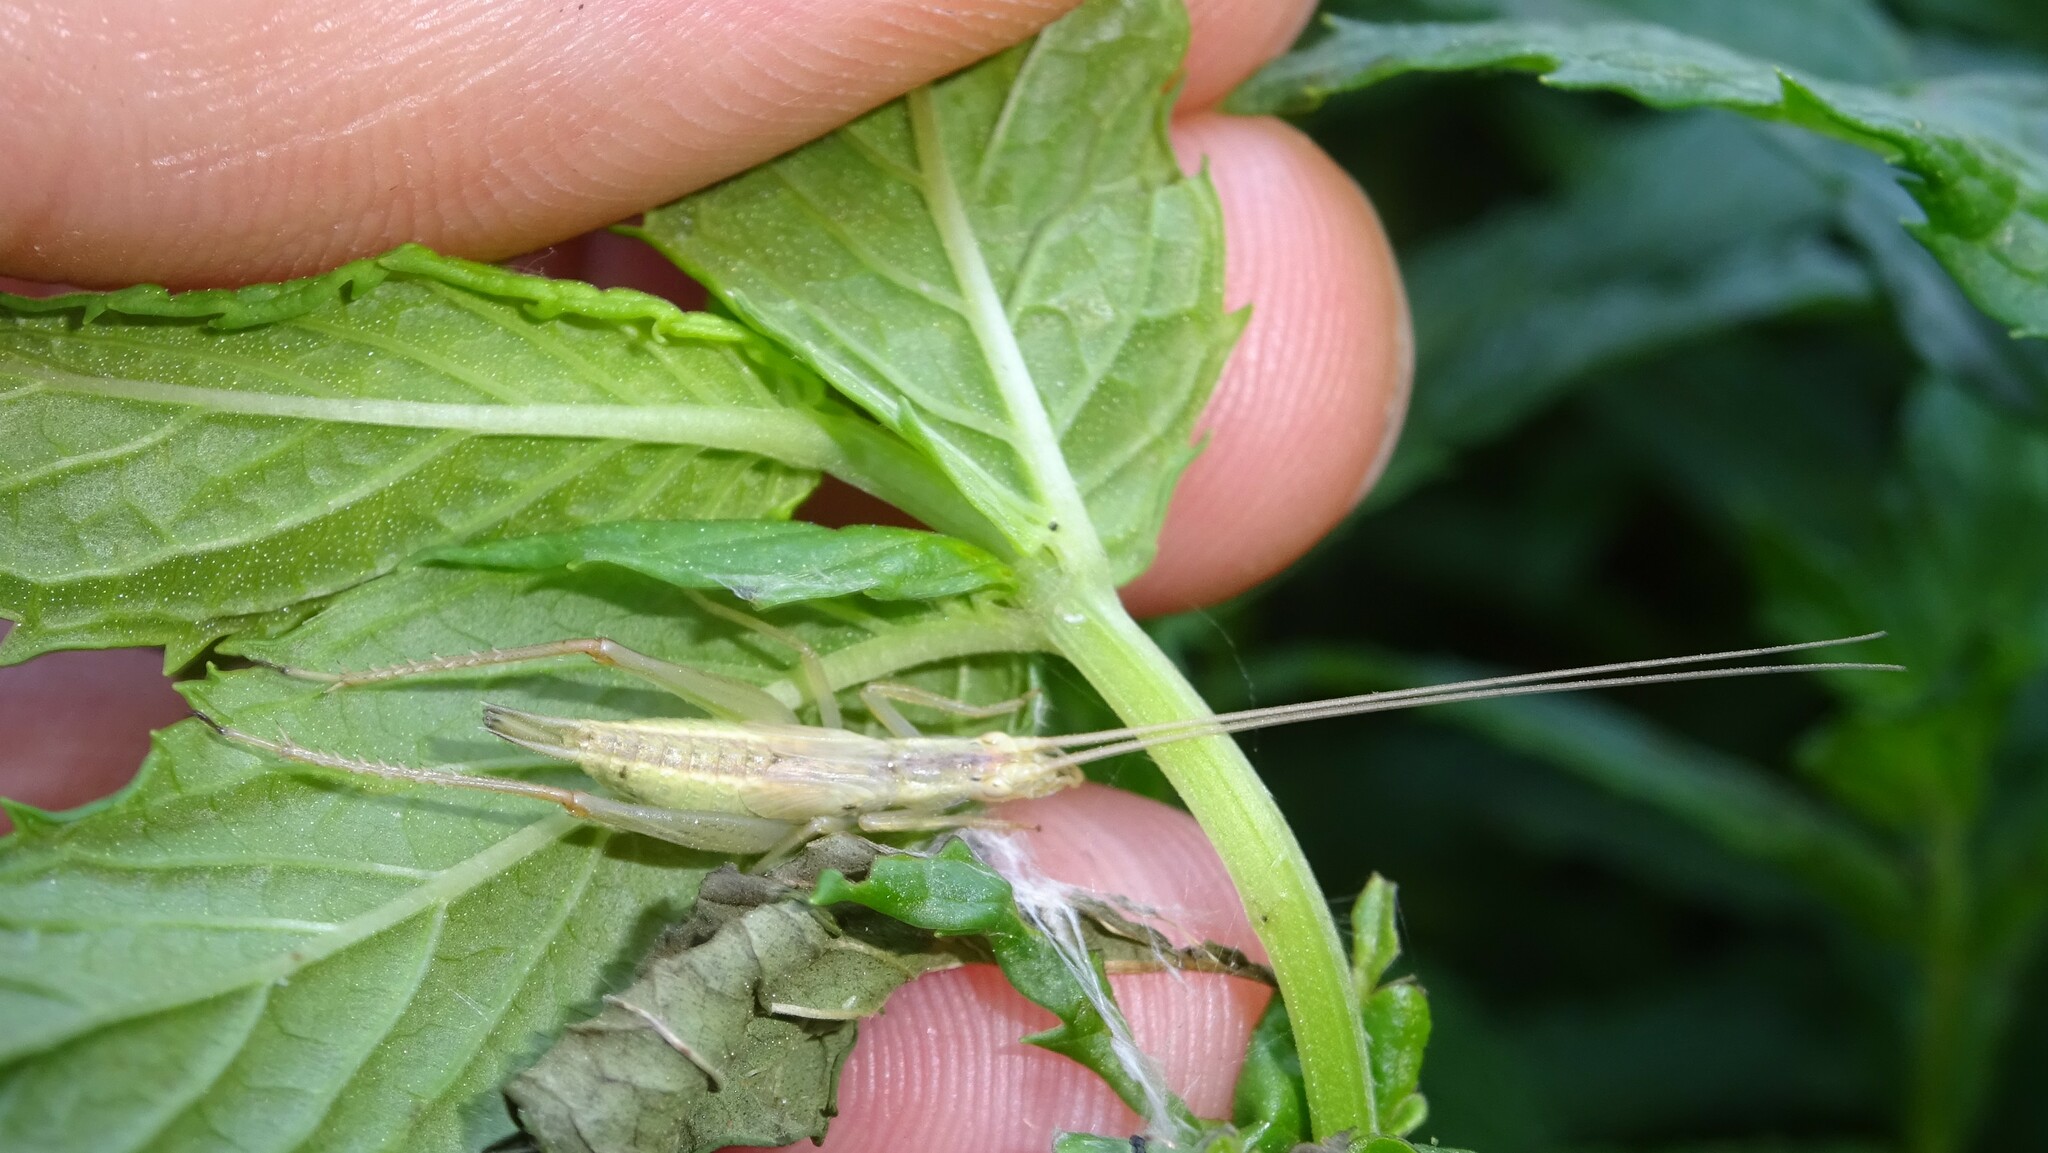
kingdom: Animalia
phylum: Arthropoda
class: Insecta
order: Orthoptera
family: Gryllidae
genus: Oecanthus
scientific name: Oecanthus pellucens
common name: Tree-cricket
